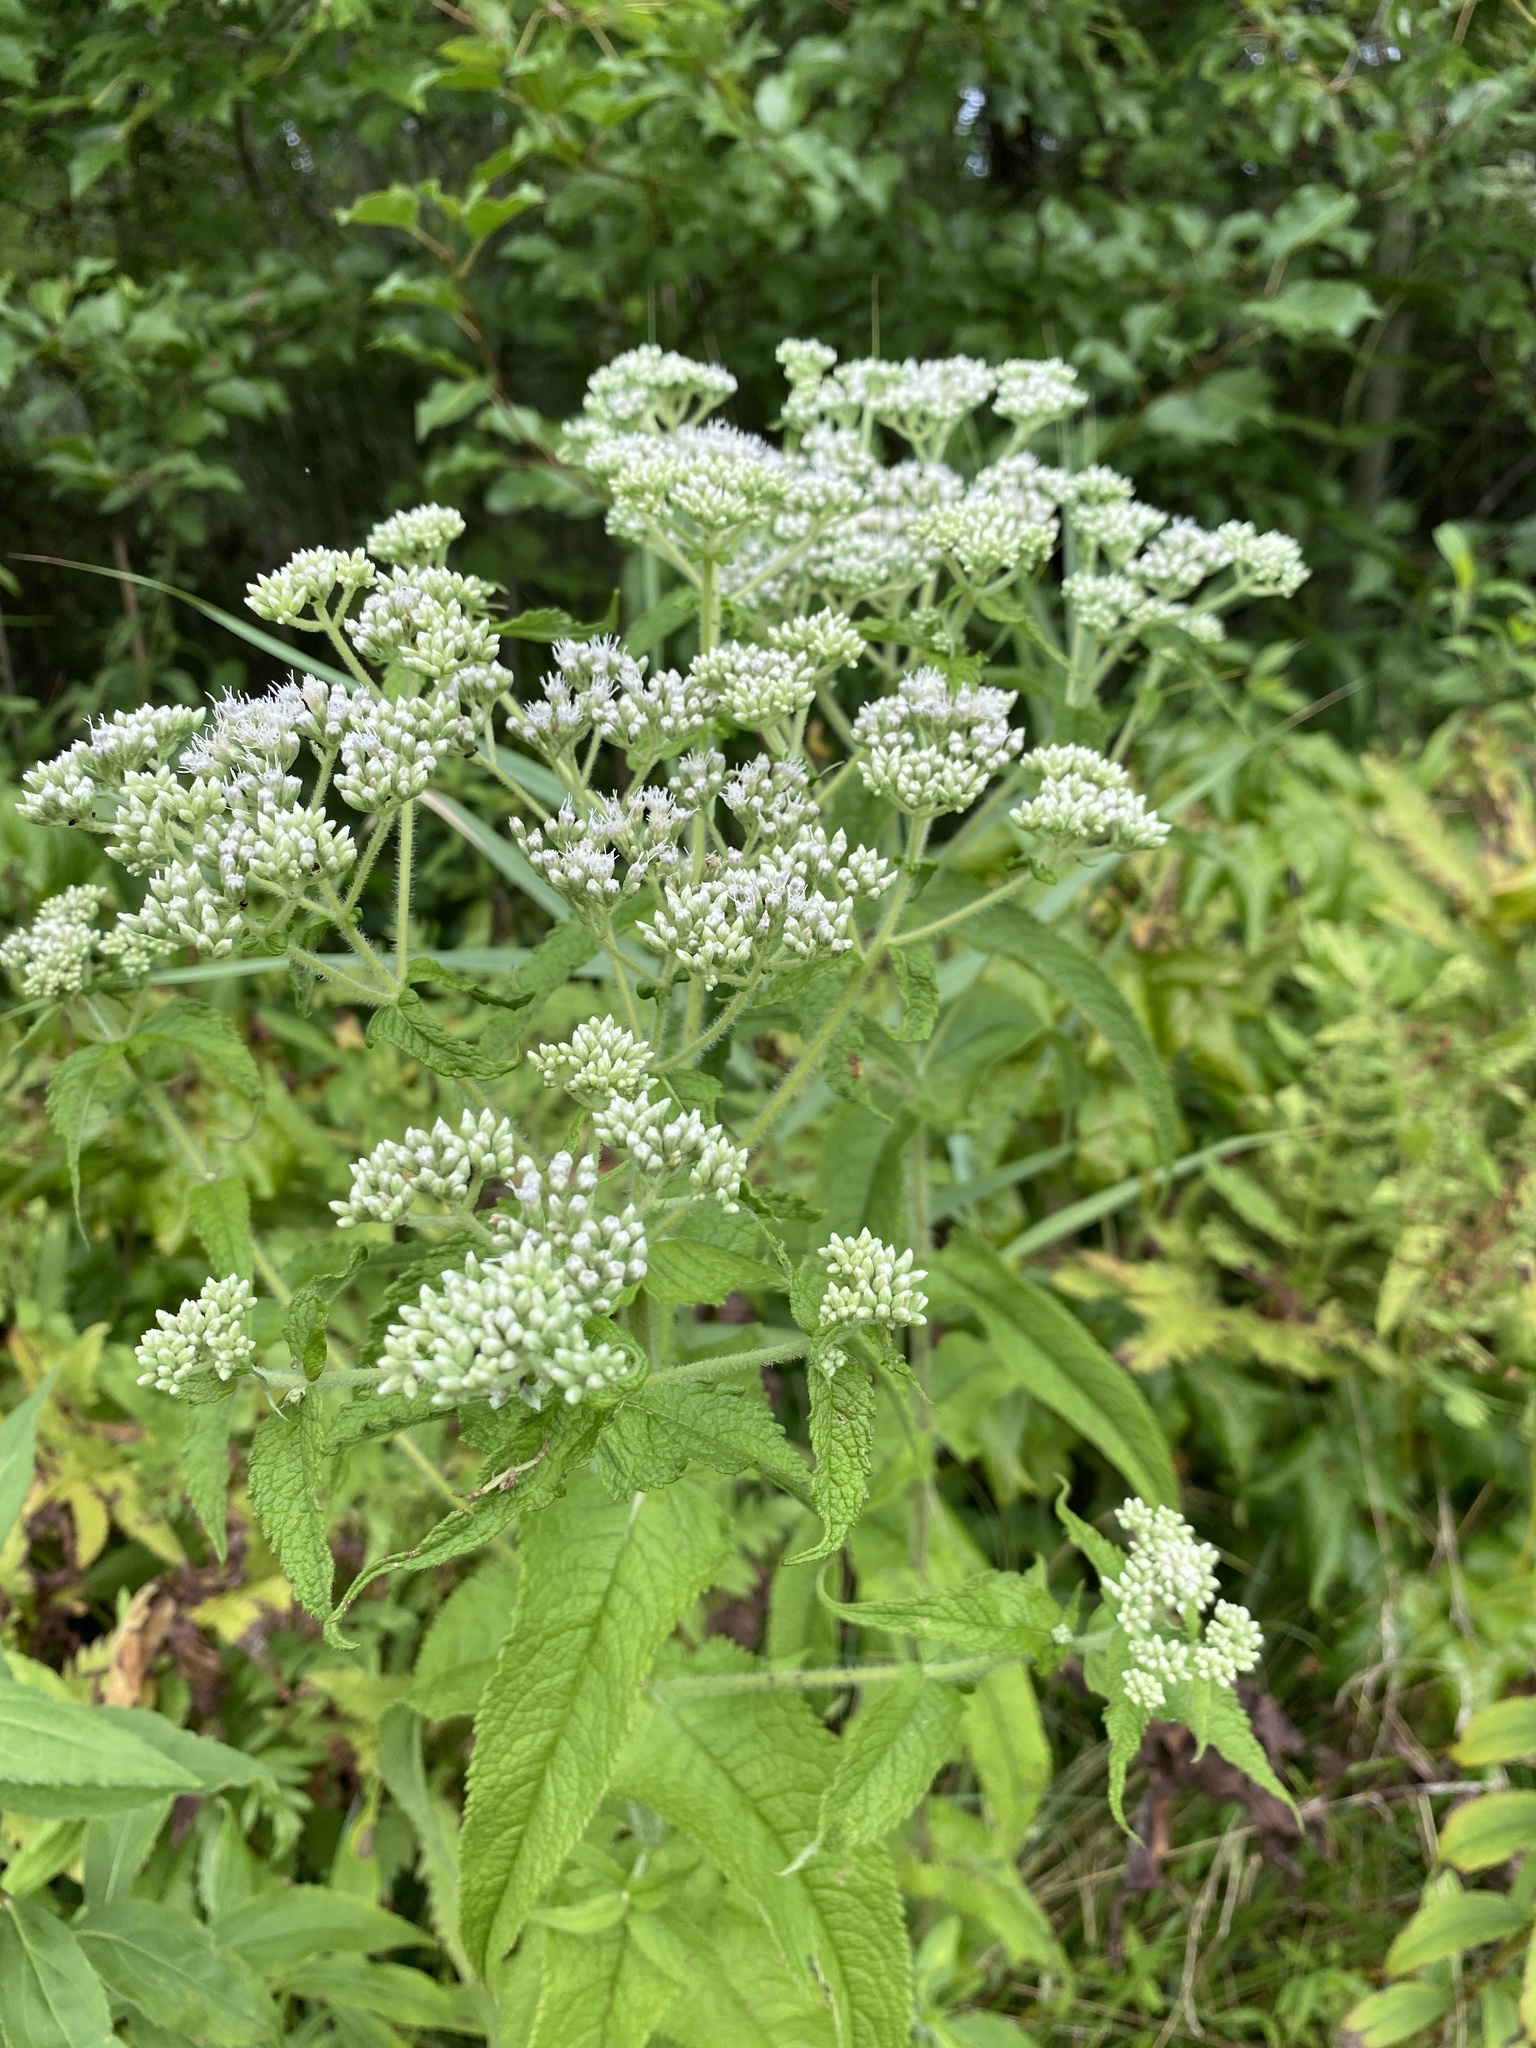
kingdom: Plantae
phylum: Tracheophyta
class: Magnoliopsida
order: Asterales
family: Asteraceae
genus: Eupatorium
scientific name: Eupatorium perfoliatum
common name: Boneset
